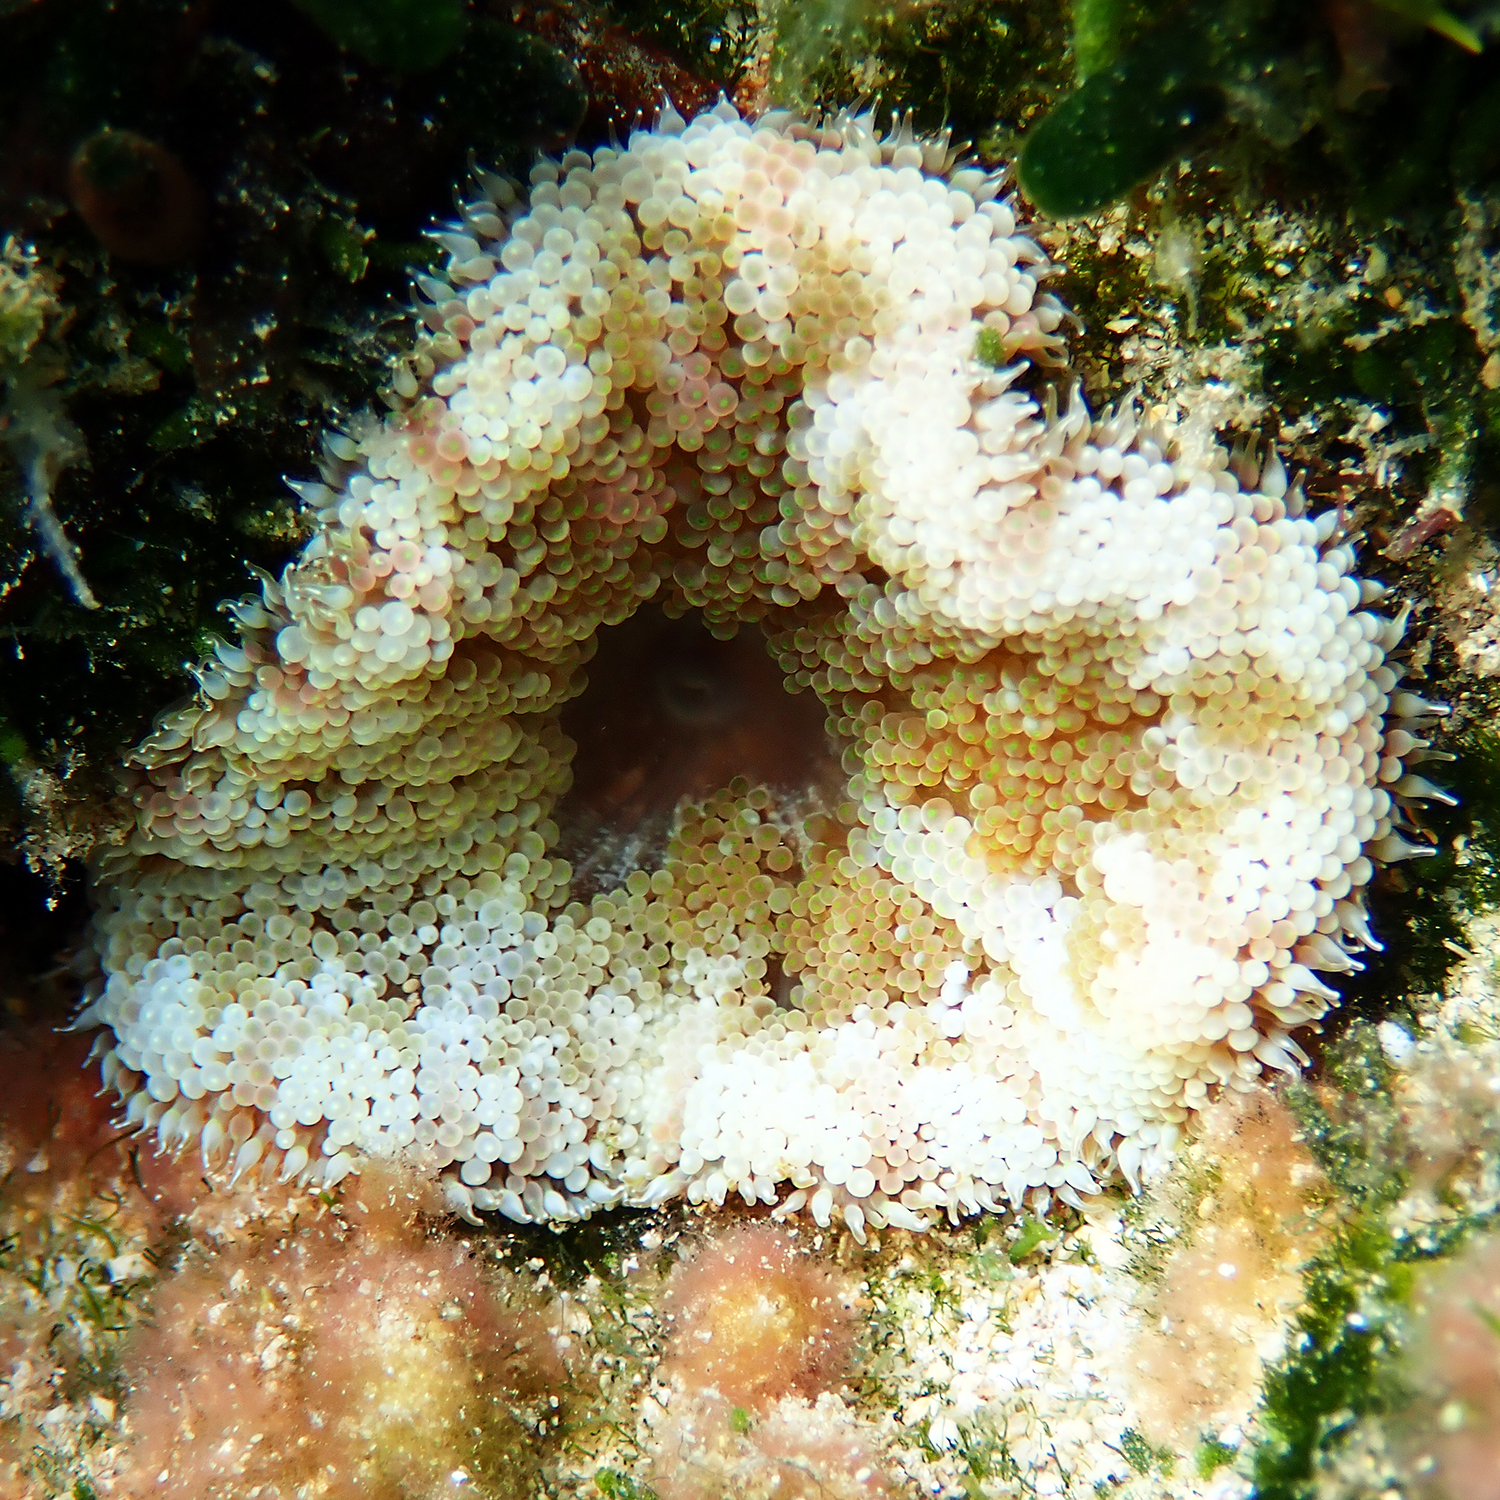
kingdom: Animalia
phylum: Cnidaria
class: Anthozoa
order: Actiniaria
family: Stichodactylidae
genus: Stichodactyla
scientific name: Stichodactyla tapetum
